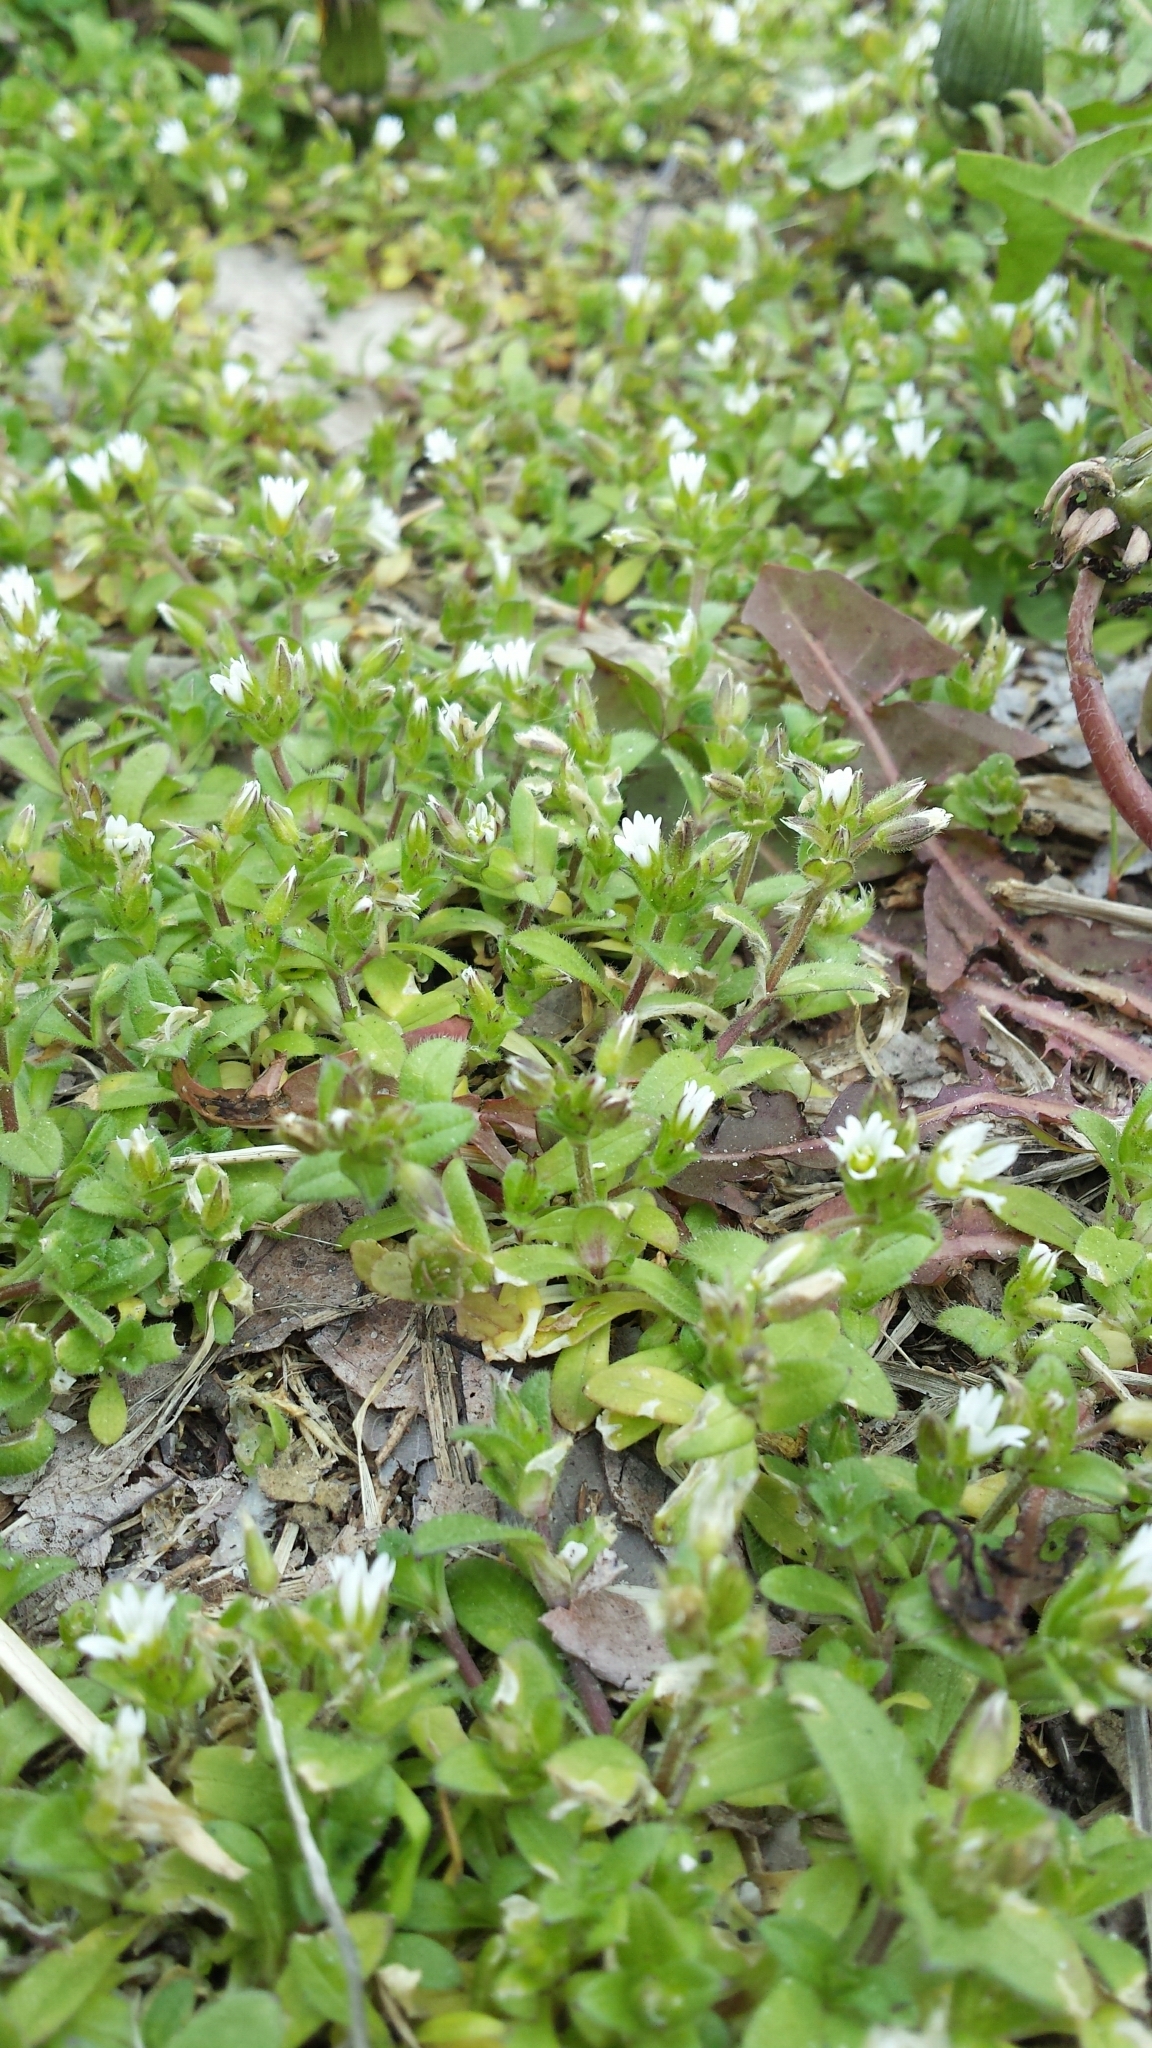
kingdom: Plantae
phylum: Tracheophyta
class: Magnoliopsida
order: Caryophyllales
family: Caryophyllaceae
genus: Cerastium
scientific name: Cerastium pumilum
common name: Dwarf mouse-ear
